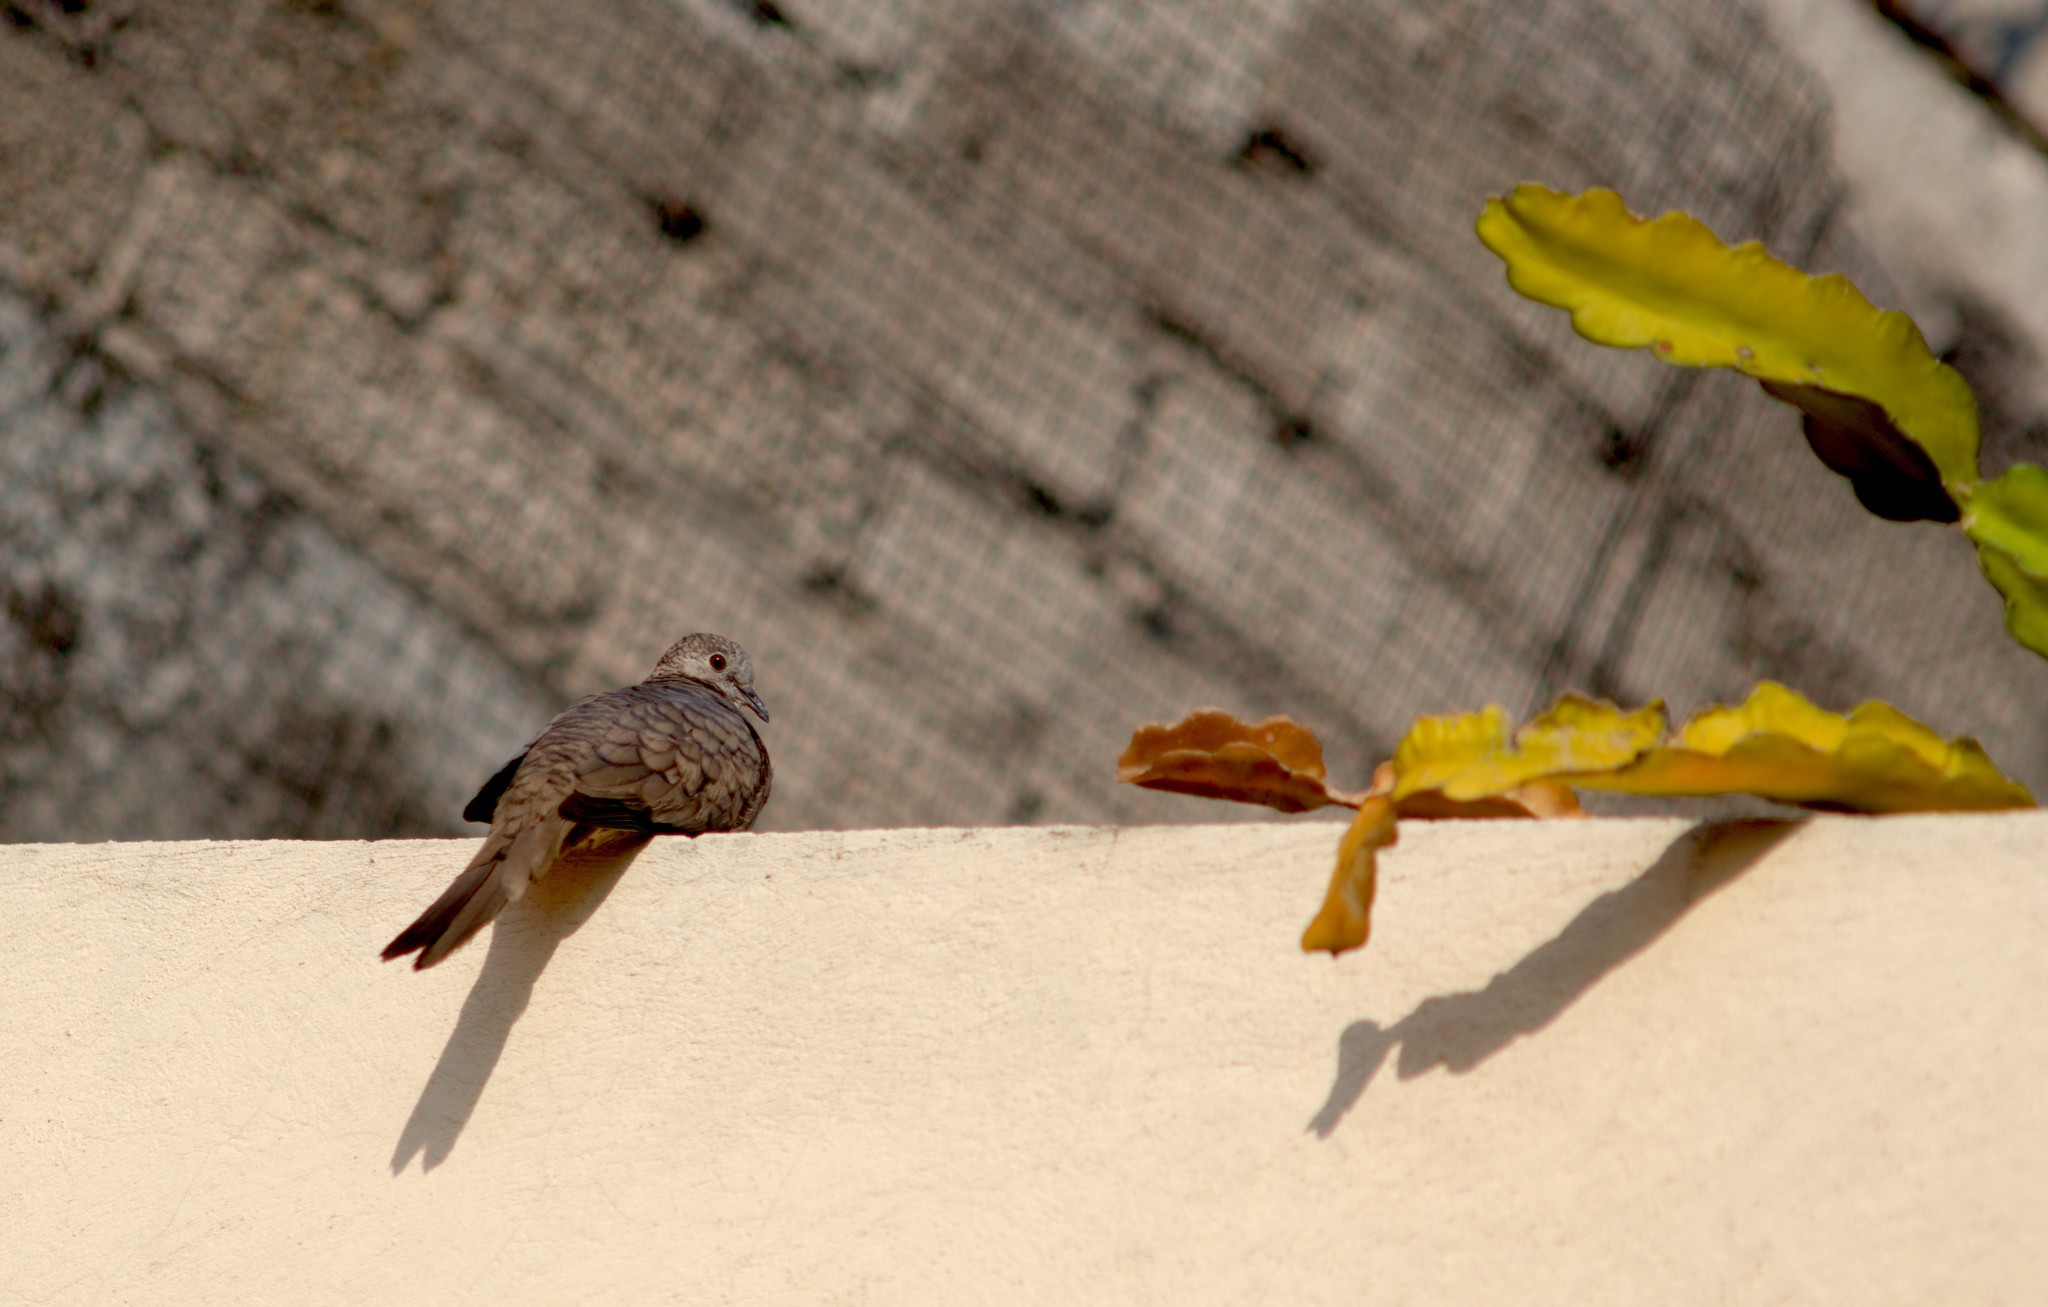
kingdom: Animalia
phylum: Chordata
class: Aves
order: Columbiformes
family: Columbidae
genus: Columbina
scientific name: Columbina inca
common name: Inca dove
